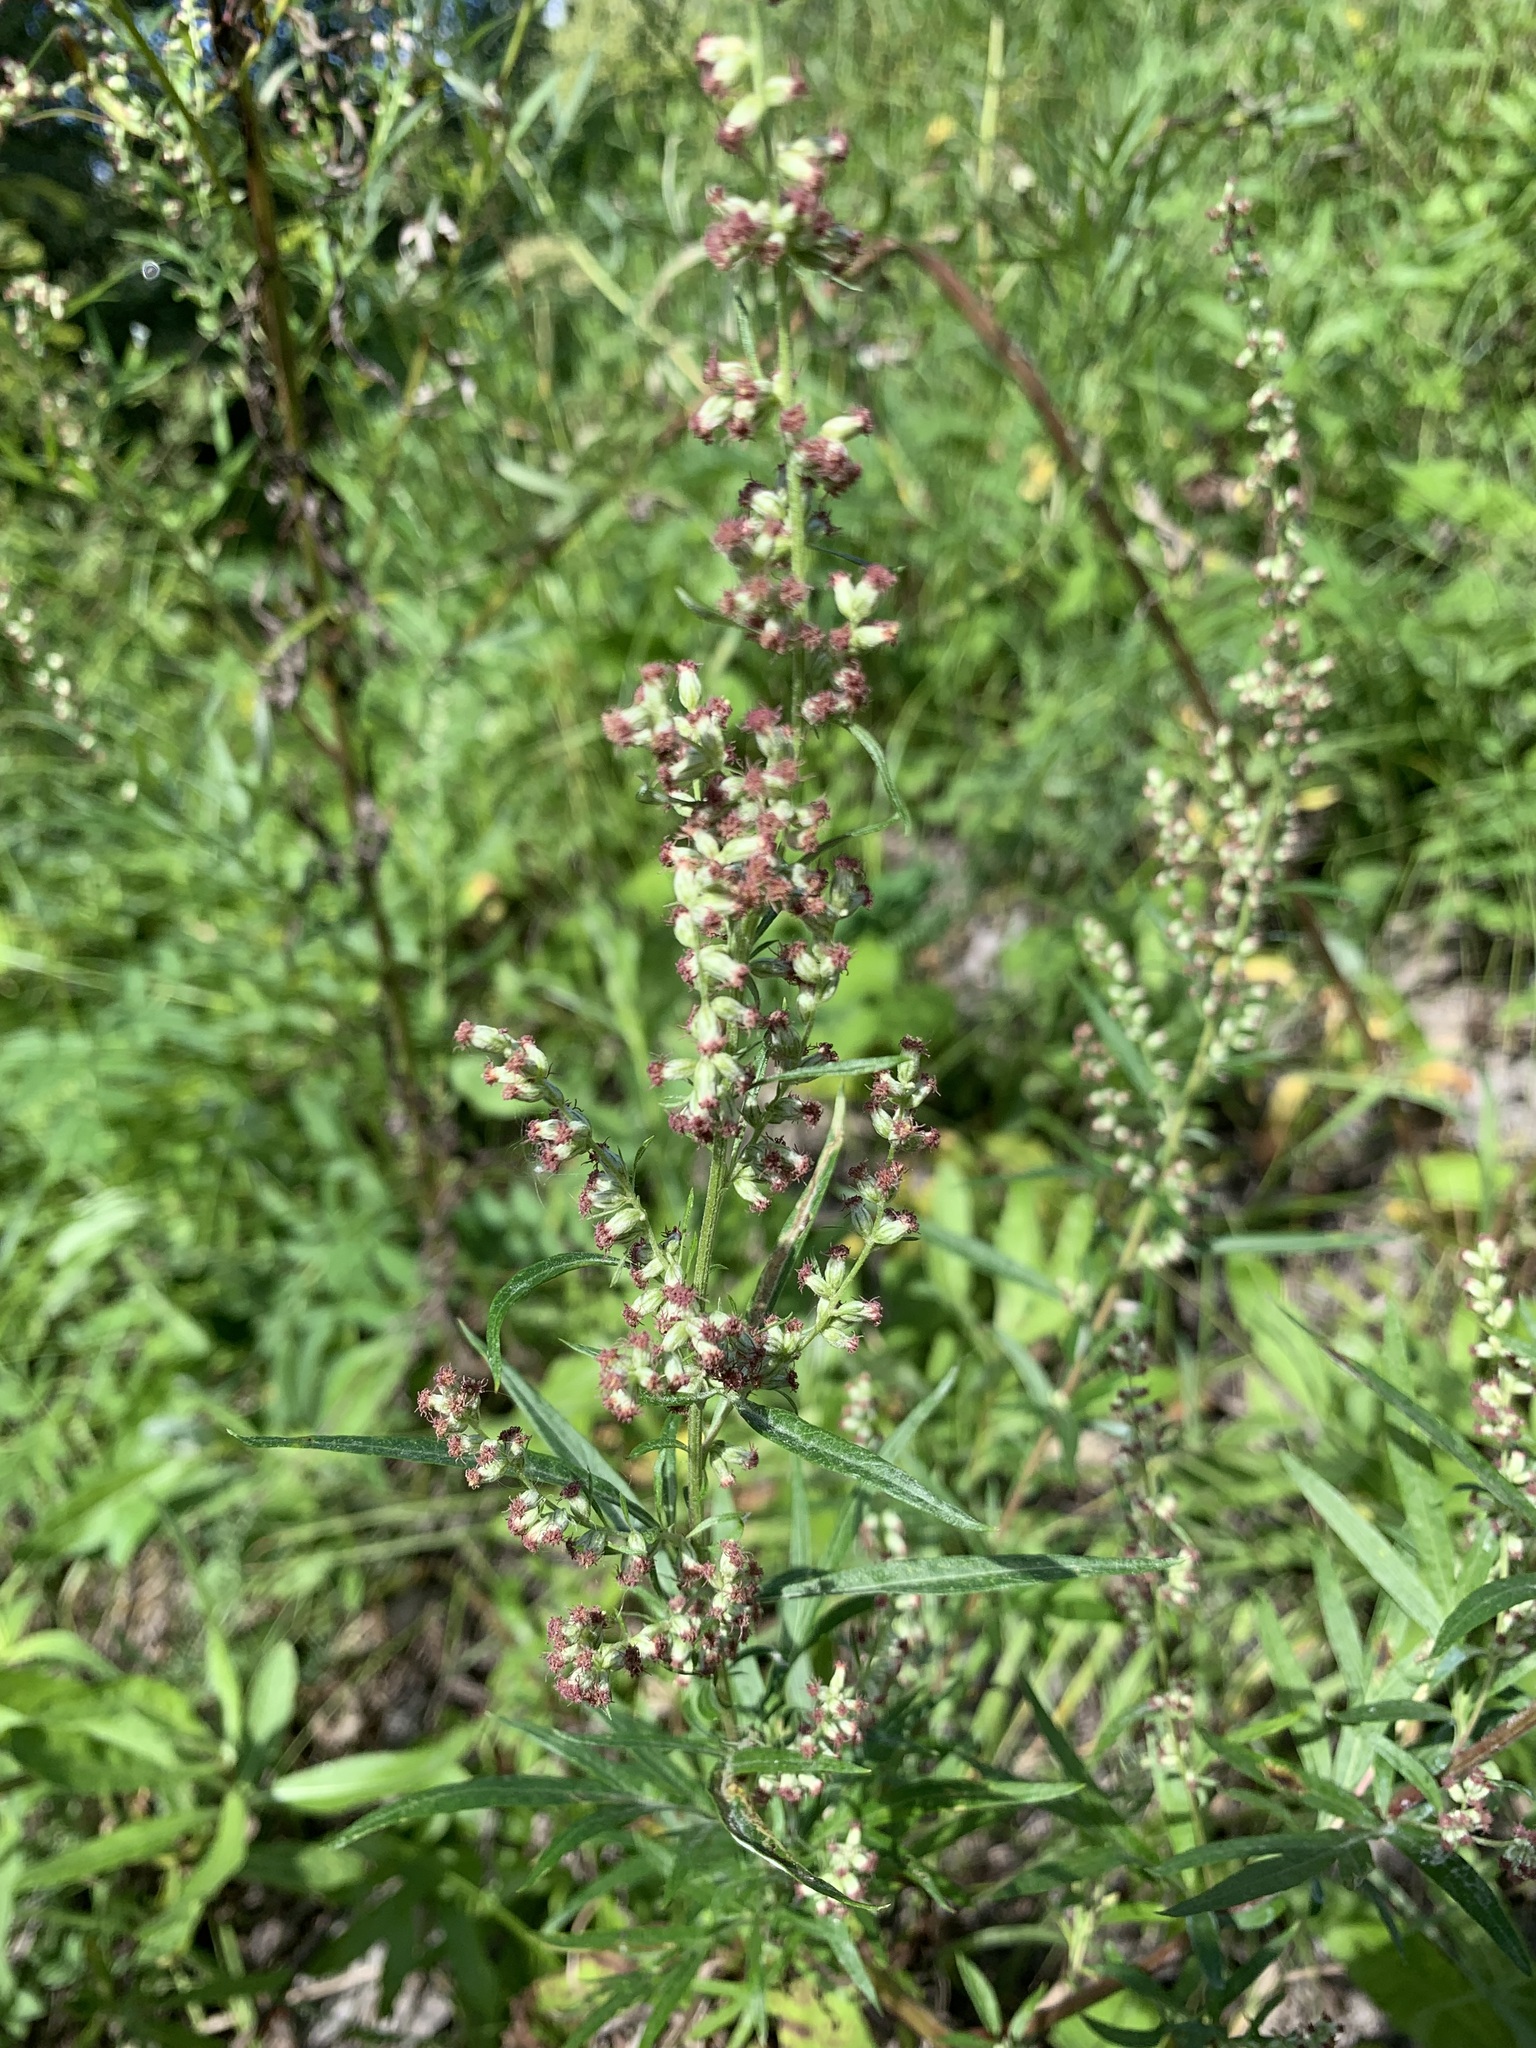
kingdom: Plantae
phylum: Tracheophyta
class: Magnoliopsida
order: Asterales
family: Asteraceae
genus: Artemisia
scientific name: Artemisia vulgaris
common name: Mugwort
